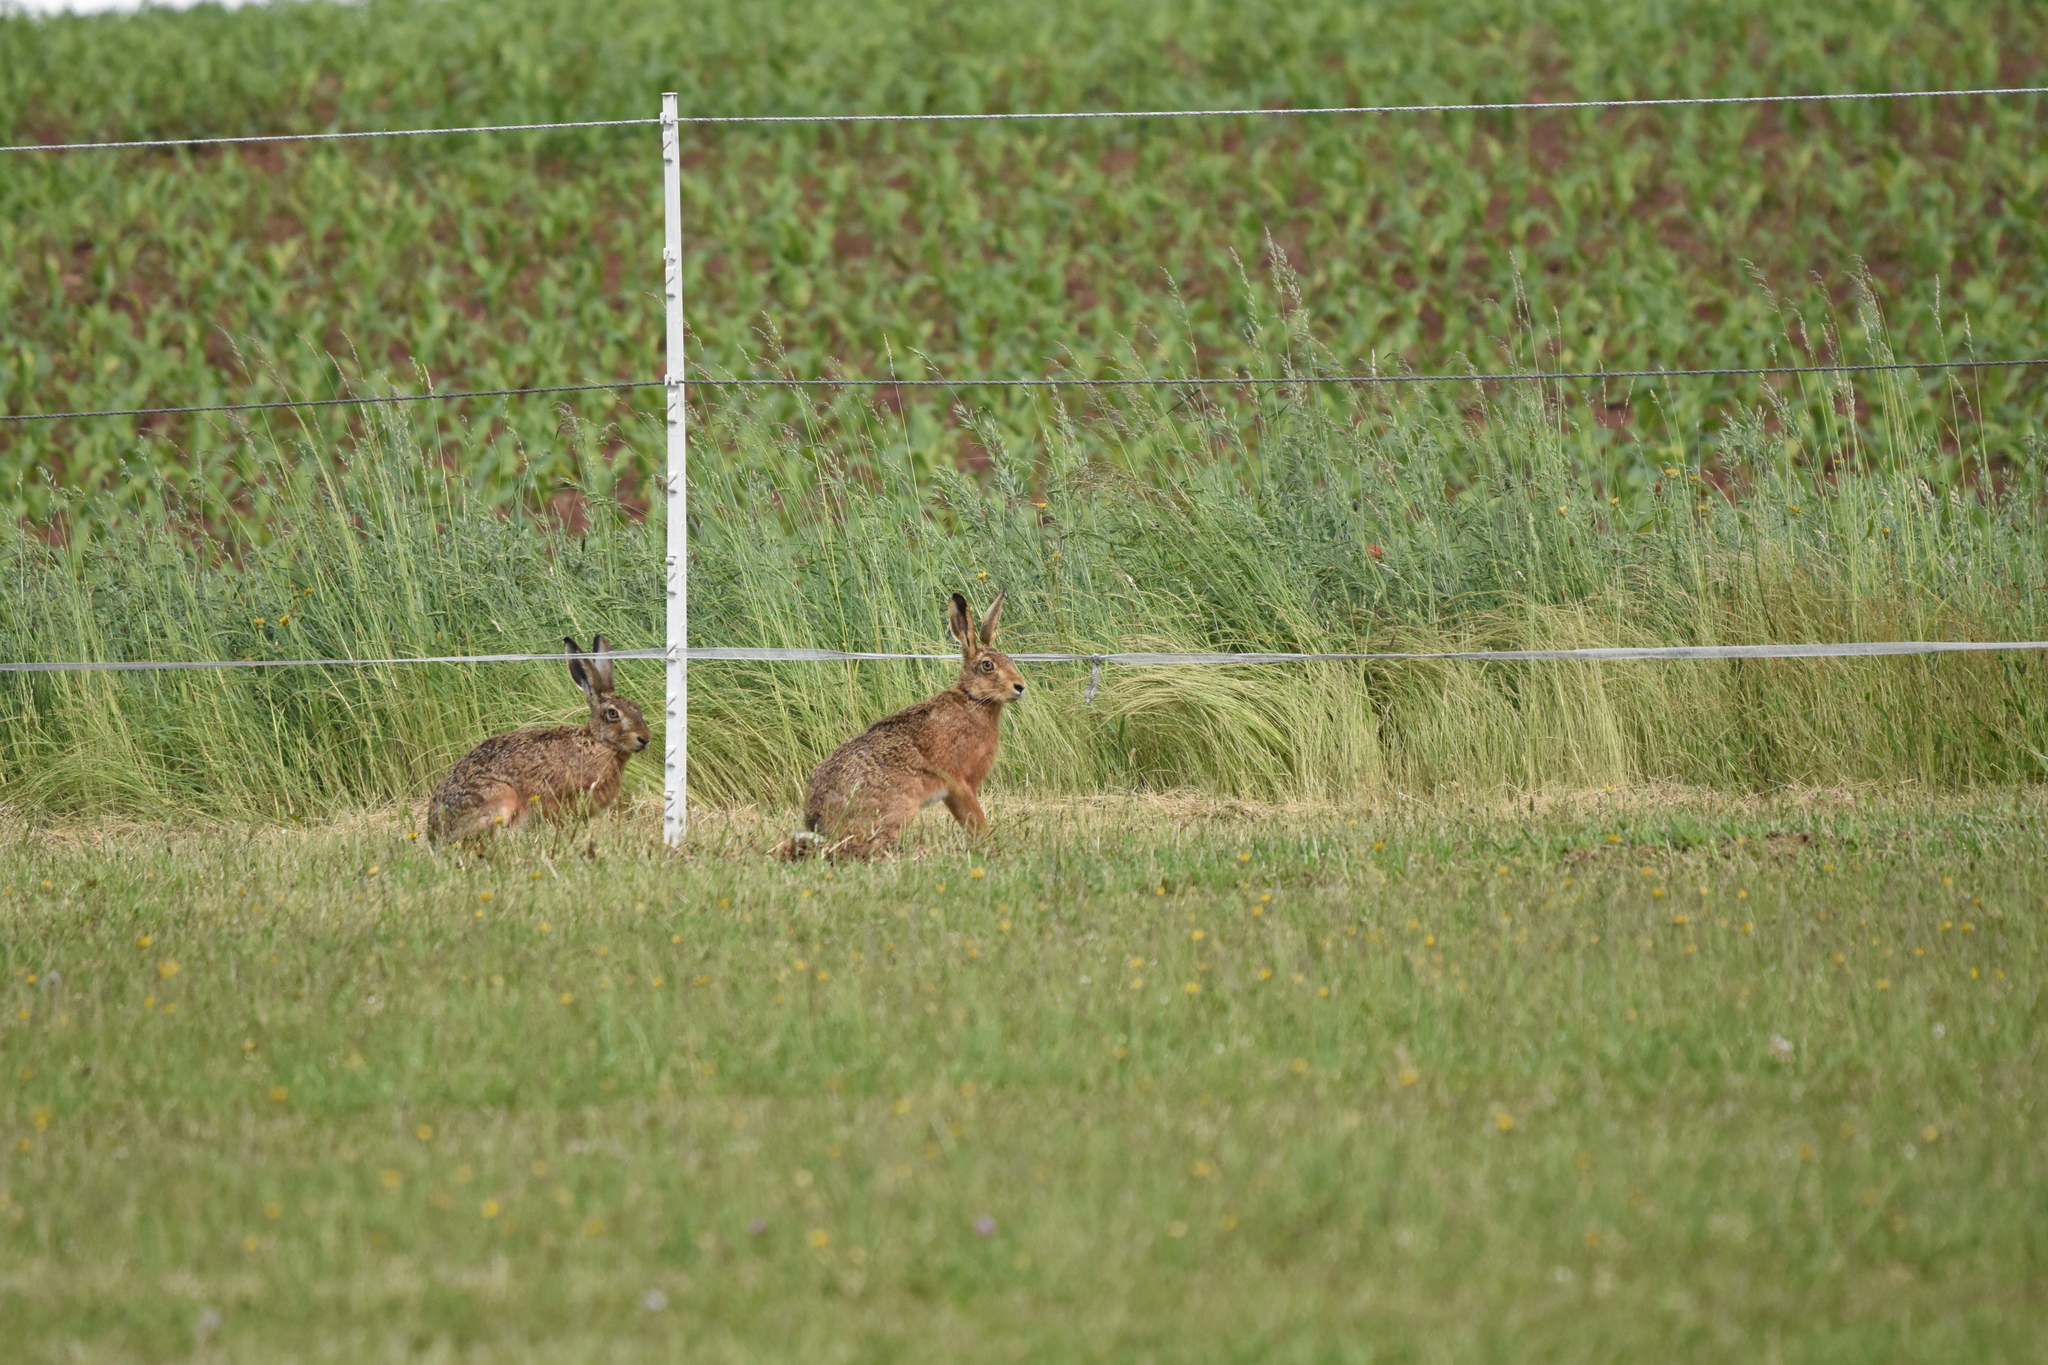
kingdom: Animalia
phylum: Chordata
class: Mammalia
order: Lagomorpha
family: Leporidae
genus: Lepus
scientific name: Lepus europaeus
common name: European hare
